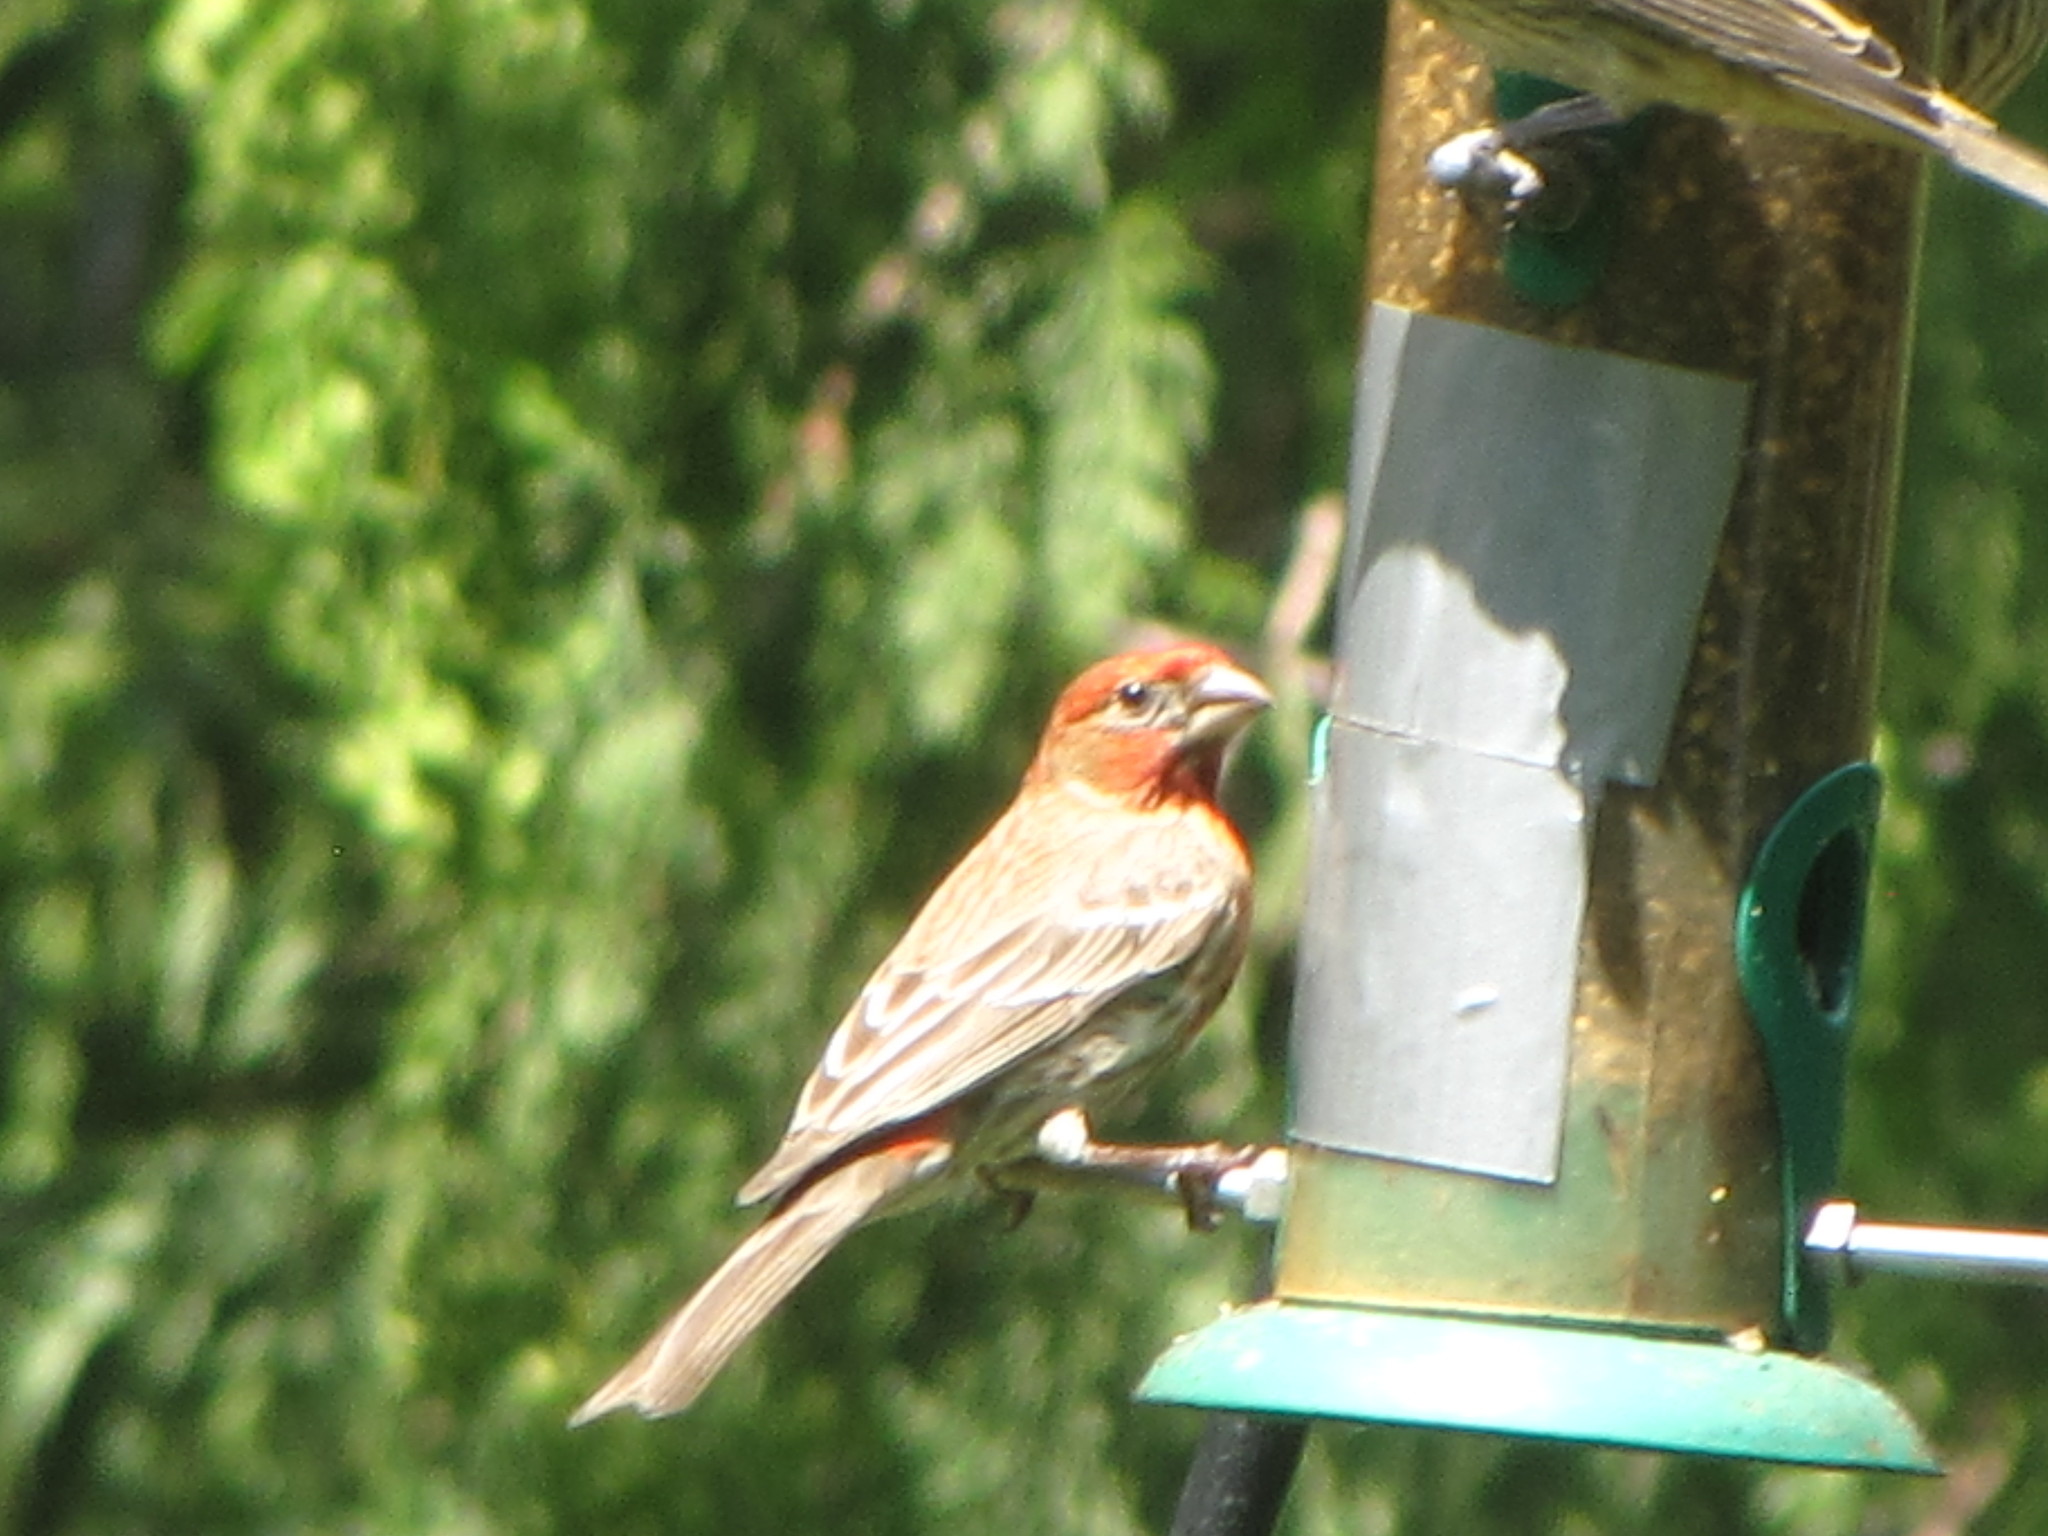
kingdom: Animalia
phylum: Chordata
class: Aves
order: Passeriformes
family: Fringillidae
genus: Haemorhous
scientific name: Haemorhous mexicanus
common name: House finch
